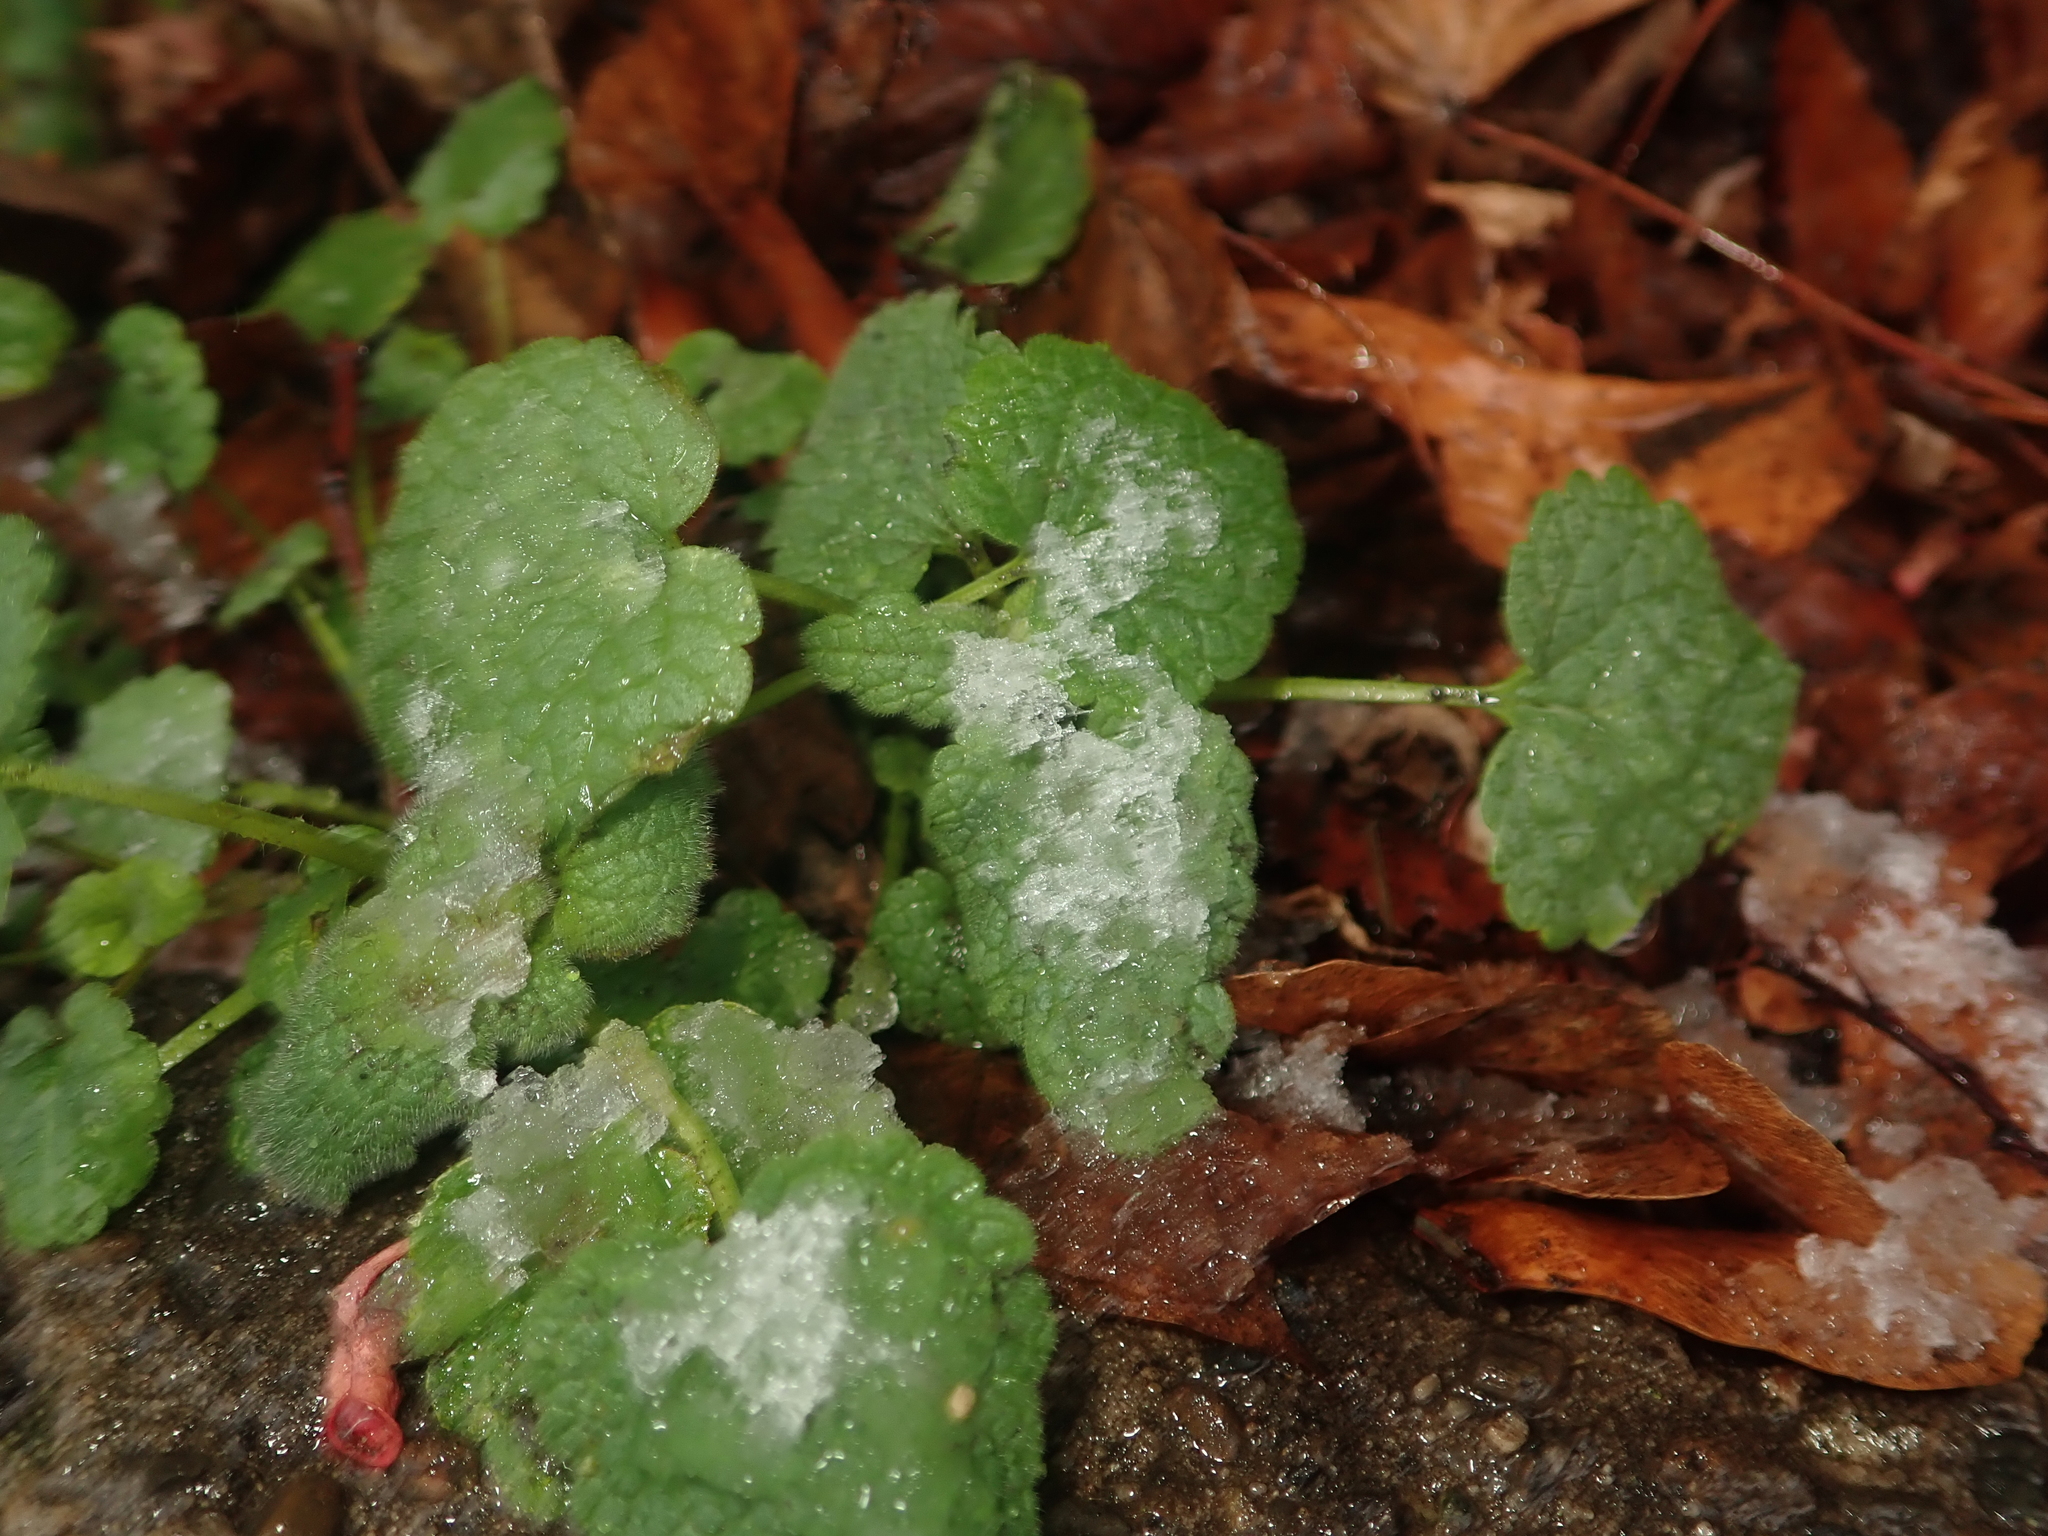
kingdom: Plantae
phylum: Tracheophyta
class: Magnoliopsida
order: Lamiales
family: Lamiaceae
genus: Lamium
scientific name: Lamium purpureum
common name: Red dead-nettle
